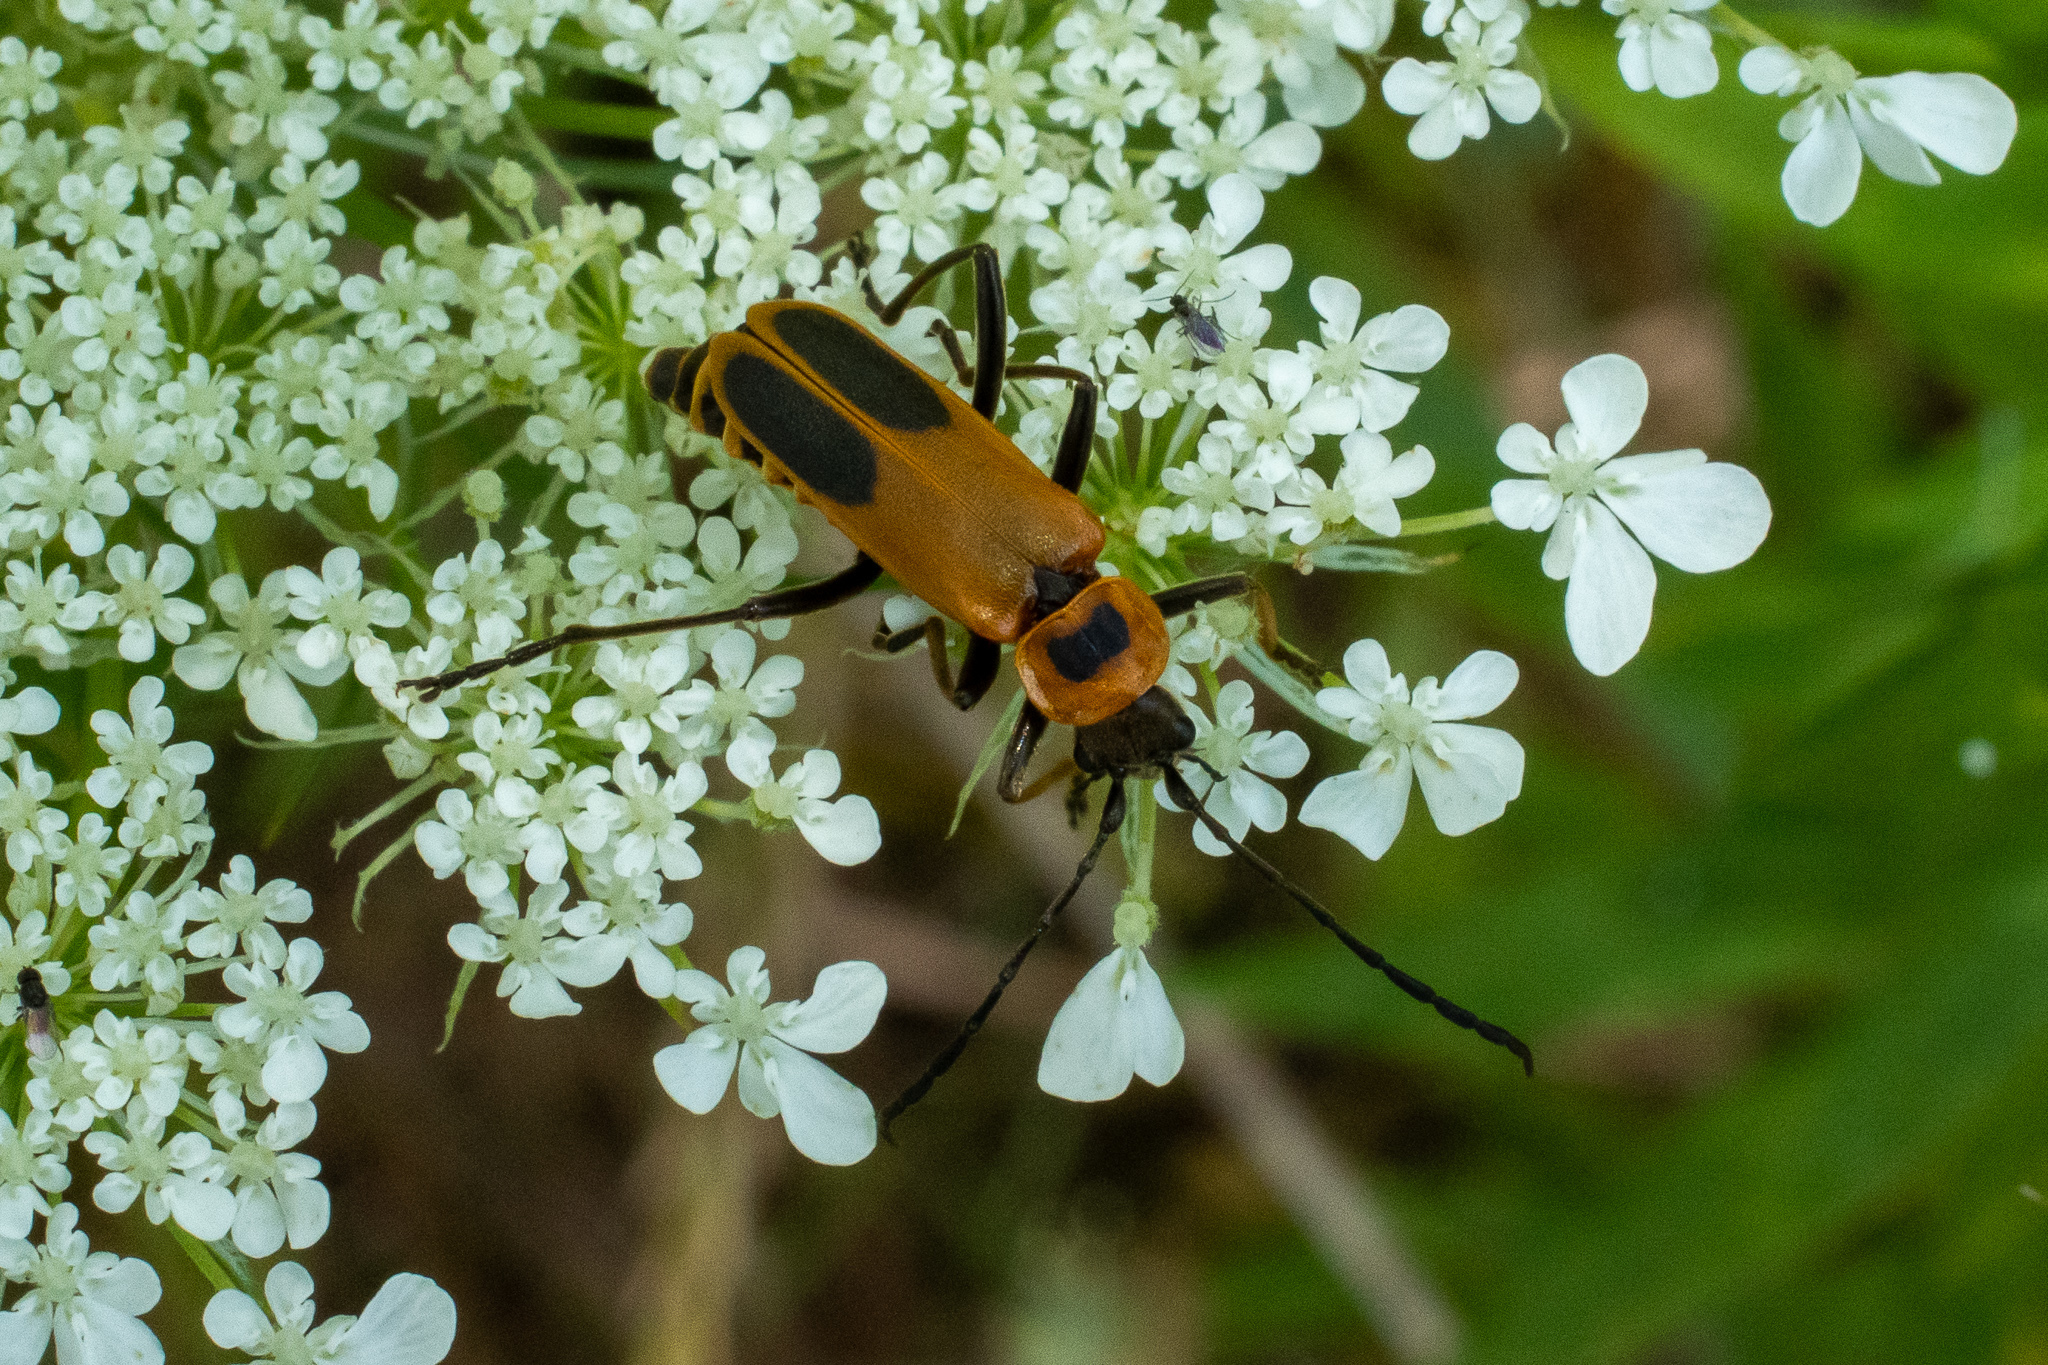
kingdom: Animalia
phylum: Arthropoda
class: Insecta
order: Coleoptera
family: Cantharidae
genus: Chauliognathus
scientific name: Chauliognathus pensylvanicus
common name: Goldenrod soldier beetle
